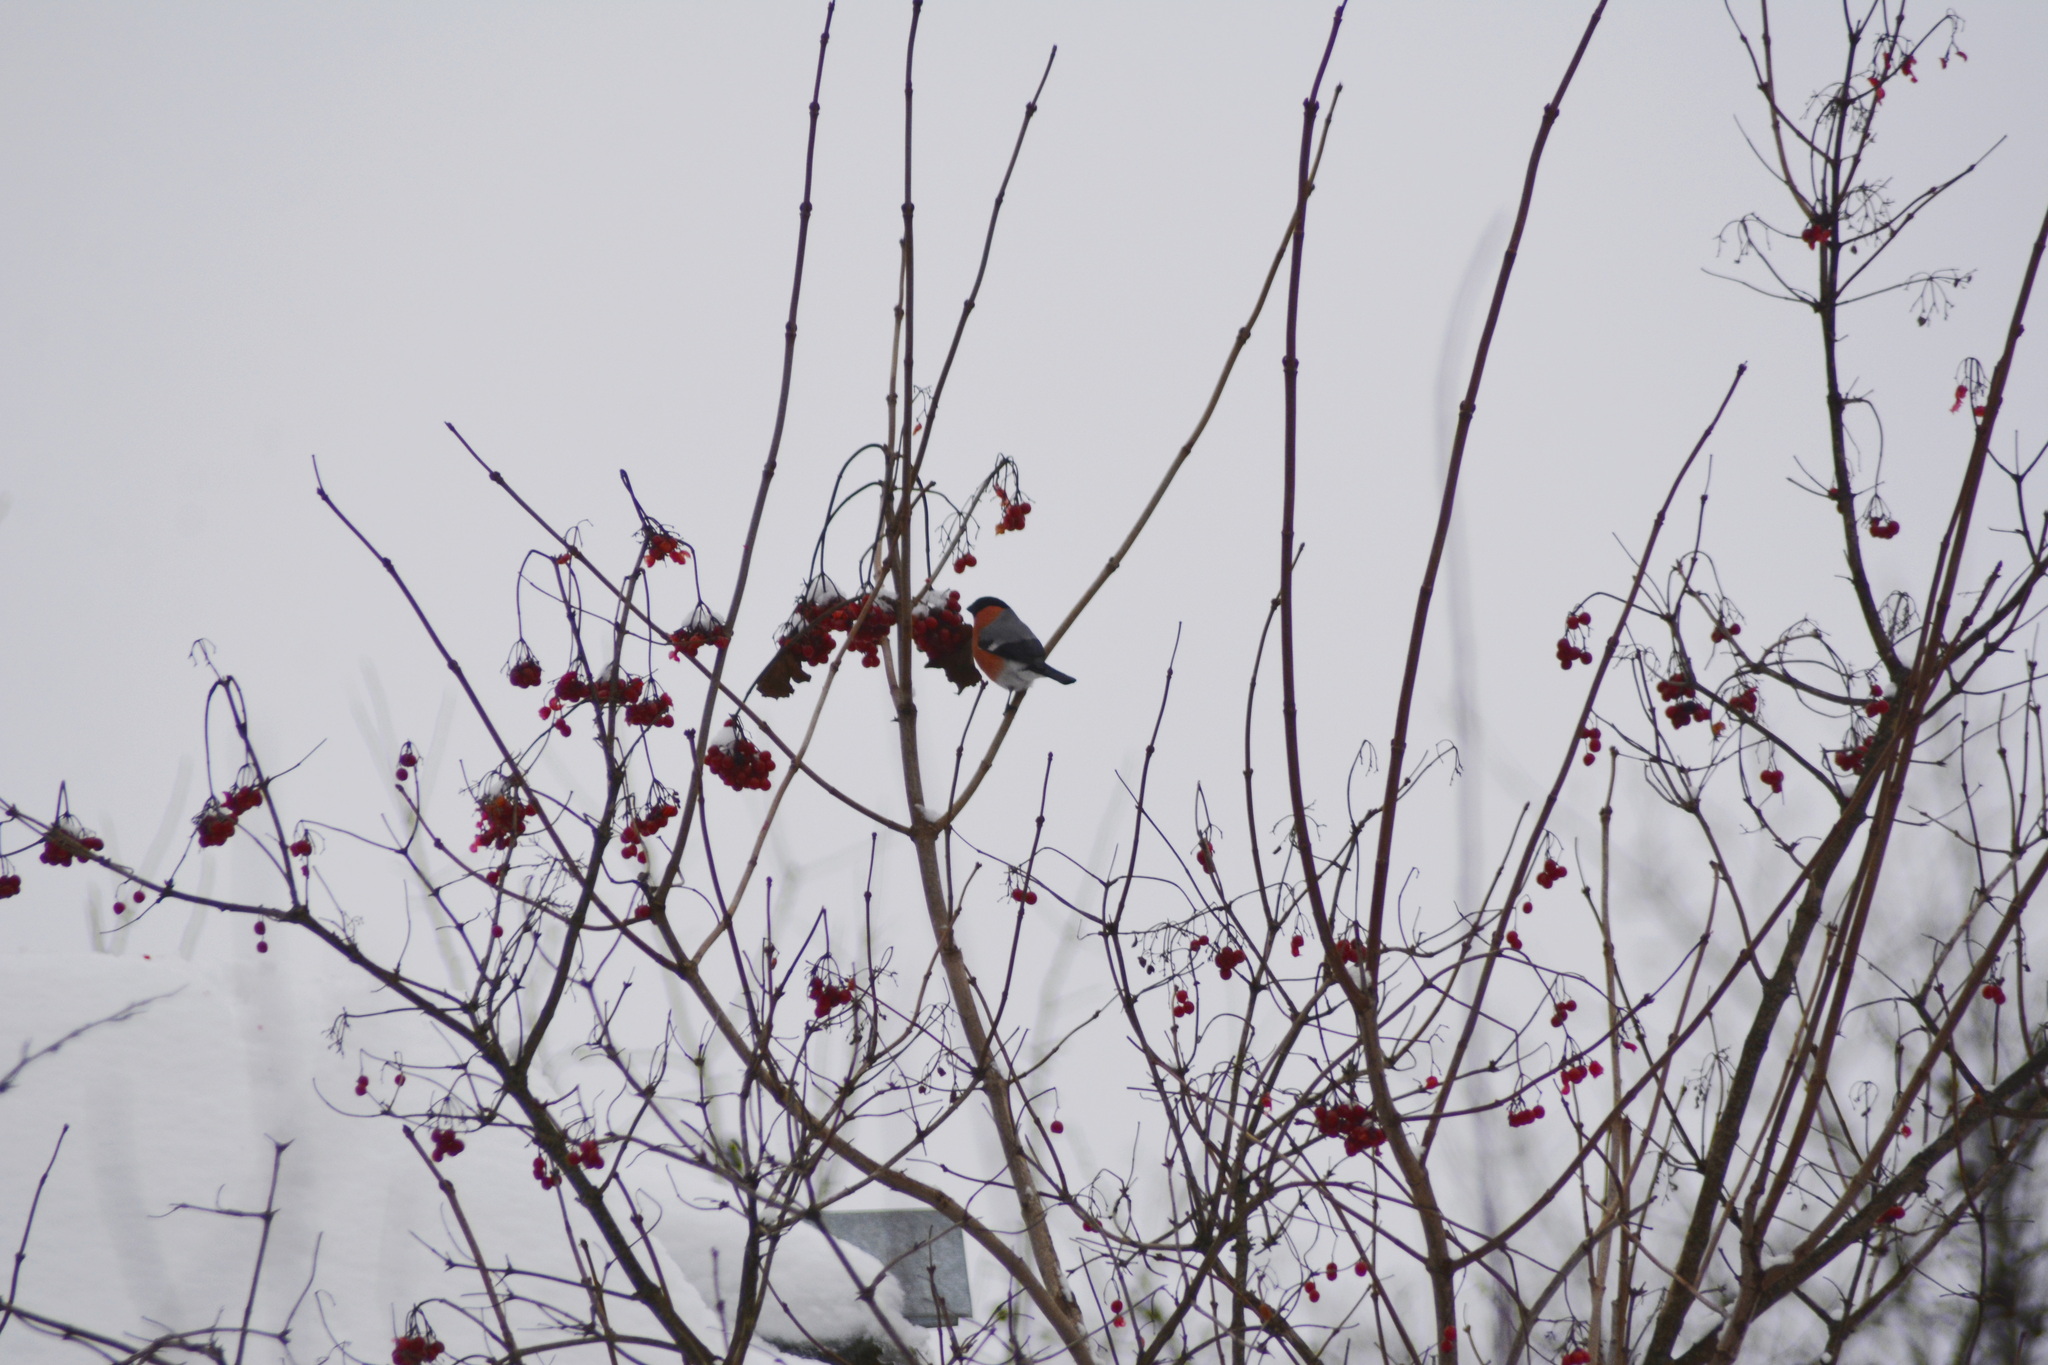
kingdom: Animalia
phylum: Chordata
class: Aves
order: Passeriformes
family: Fringillidae
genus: Pyrrhula
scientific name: Pyrrhula pyrrhula
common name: Eurasian bullfinch
